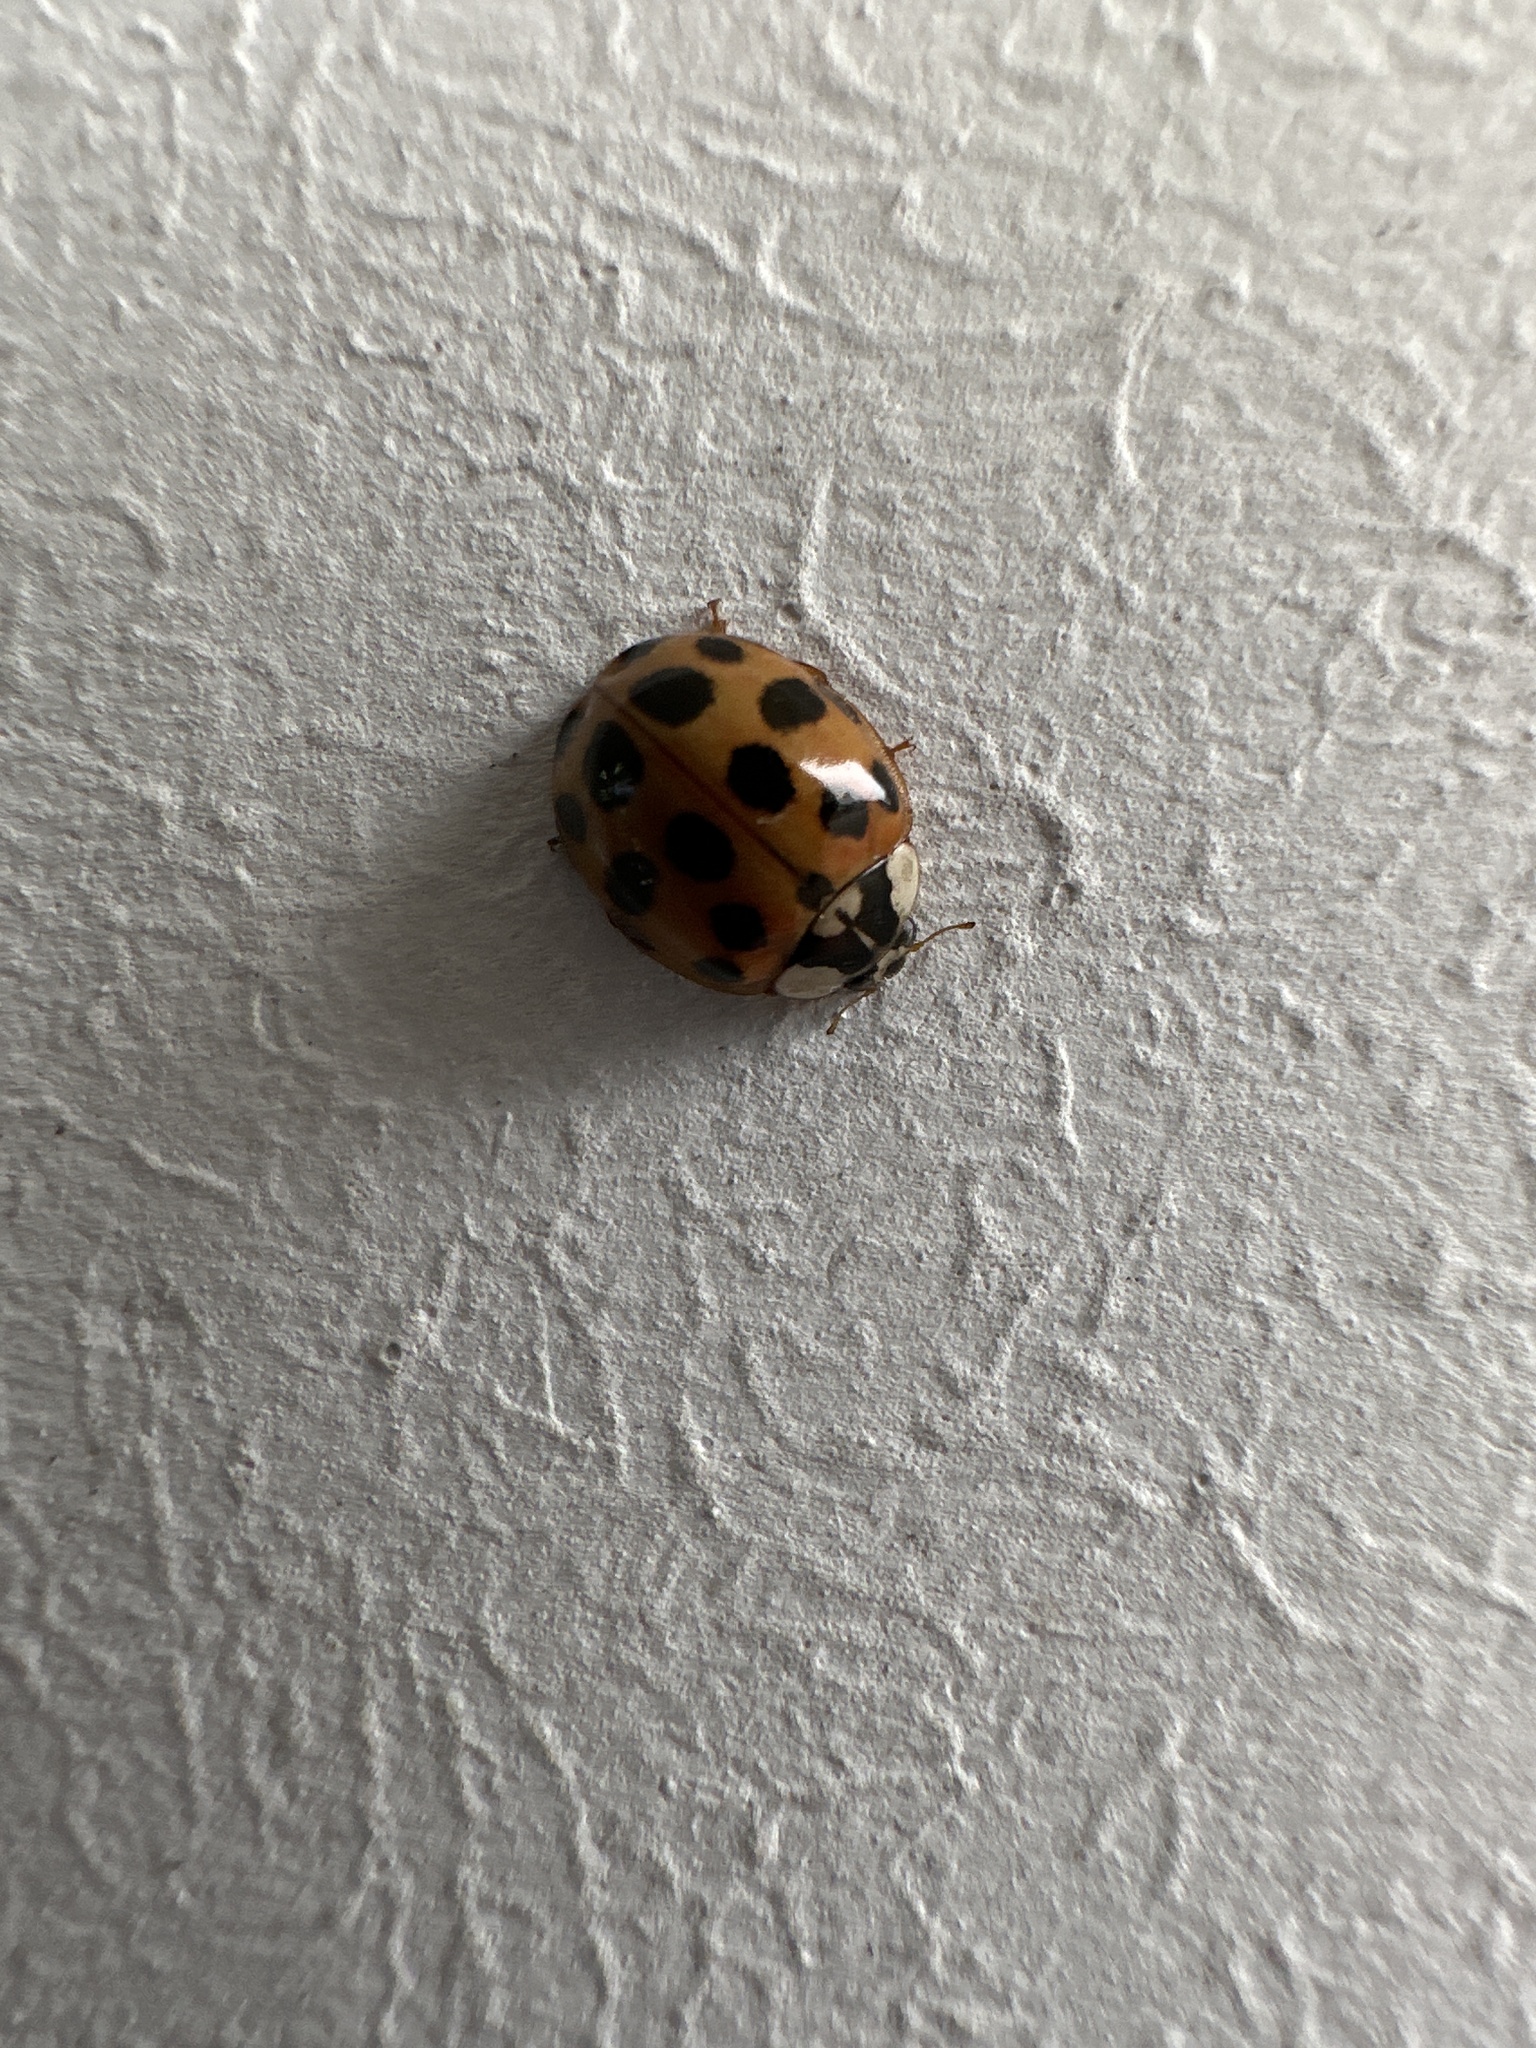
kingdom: Animalia
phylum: Arthropoda
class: Insecta
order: Coleoptera
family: Coccinellidae
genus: Harmonia
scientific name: Harmonia axyridis
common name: Harlequin ladybird
